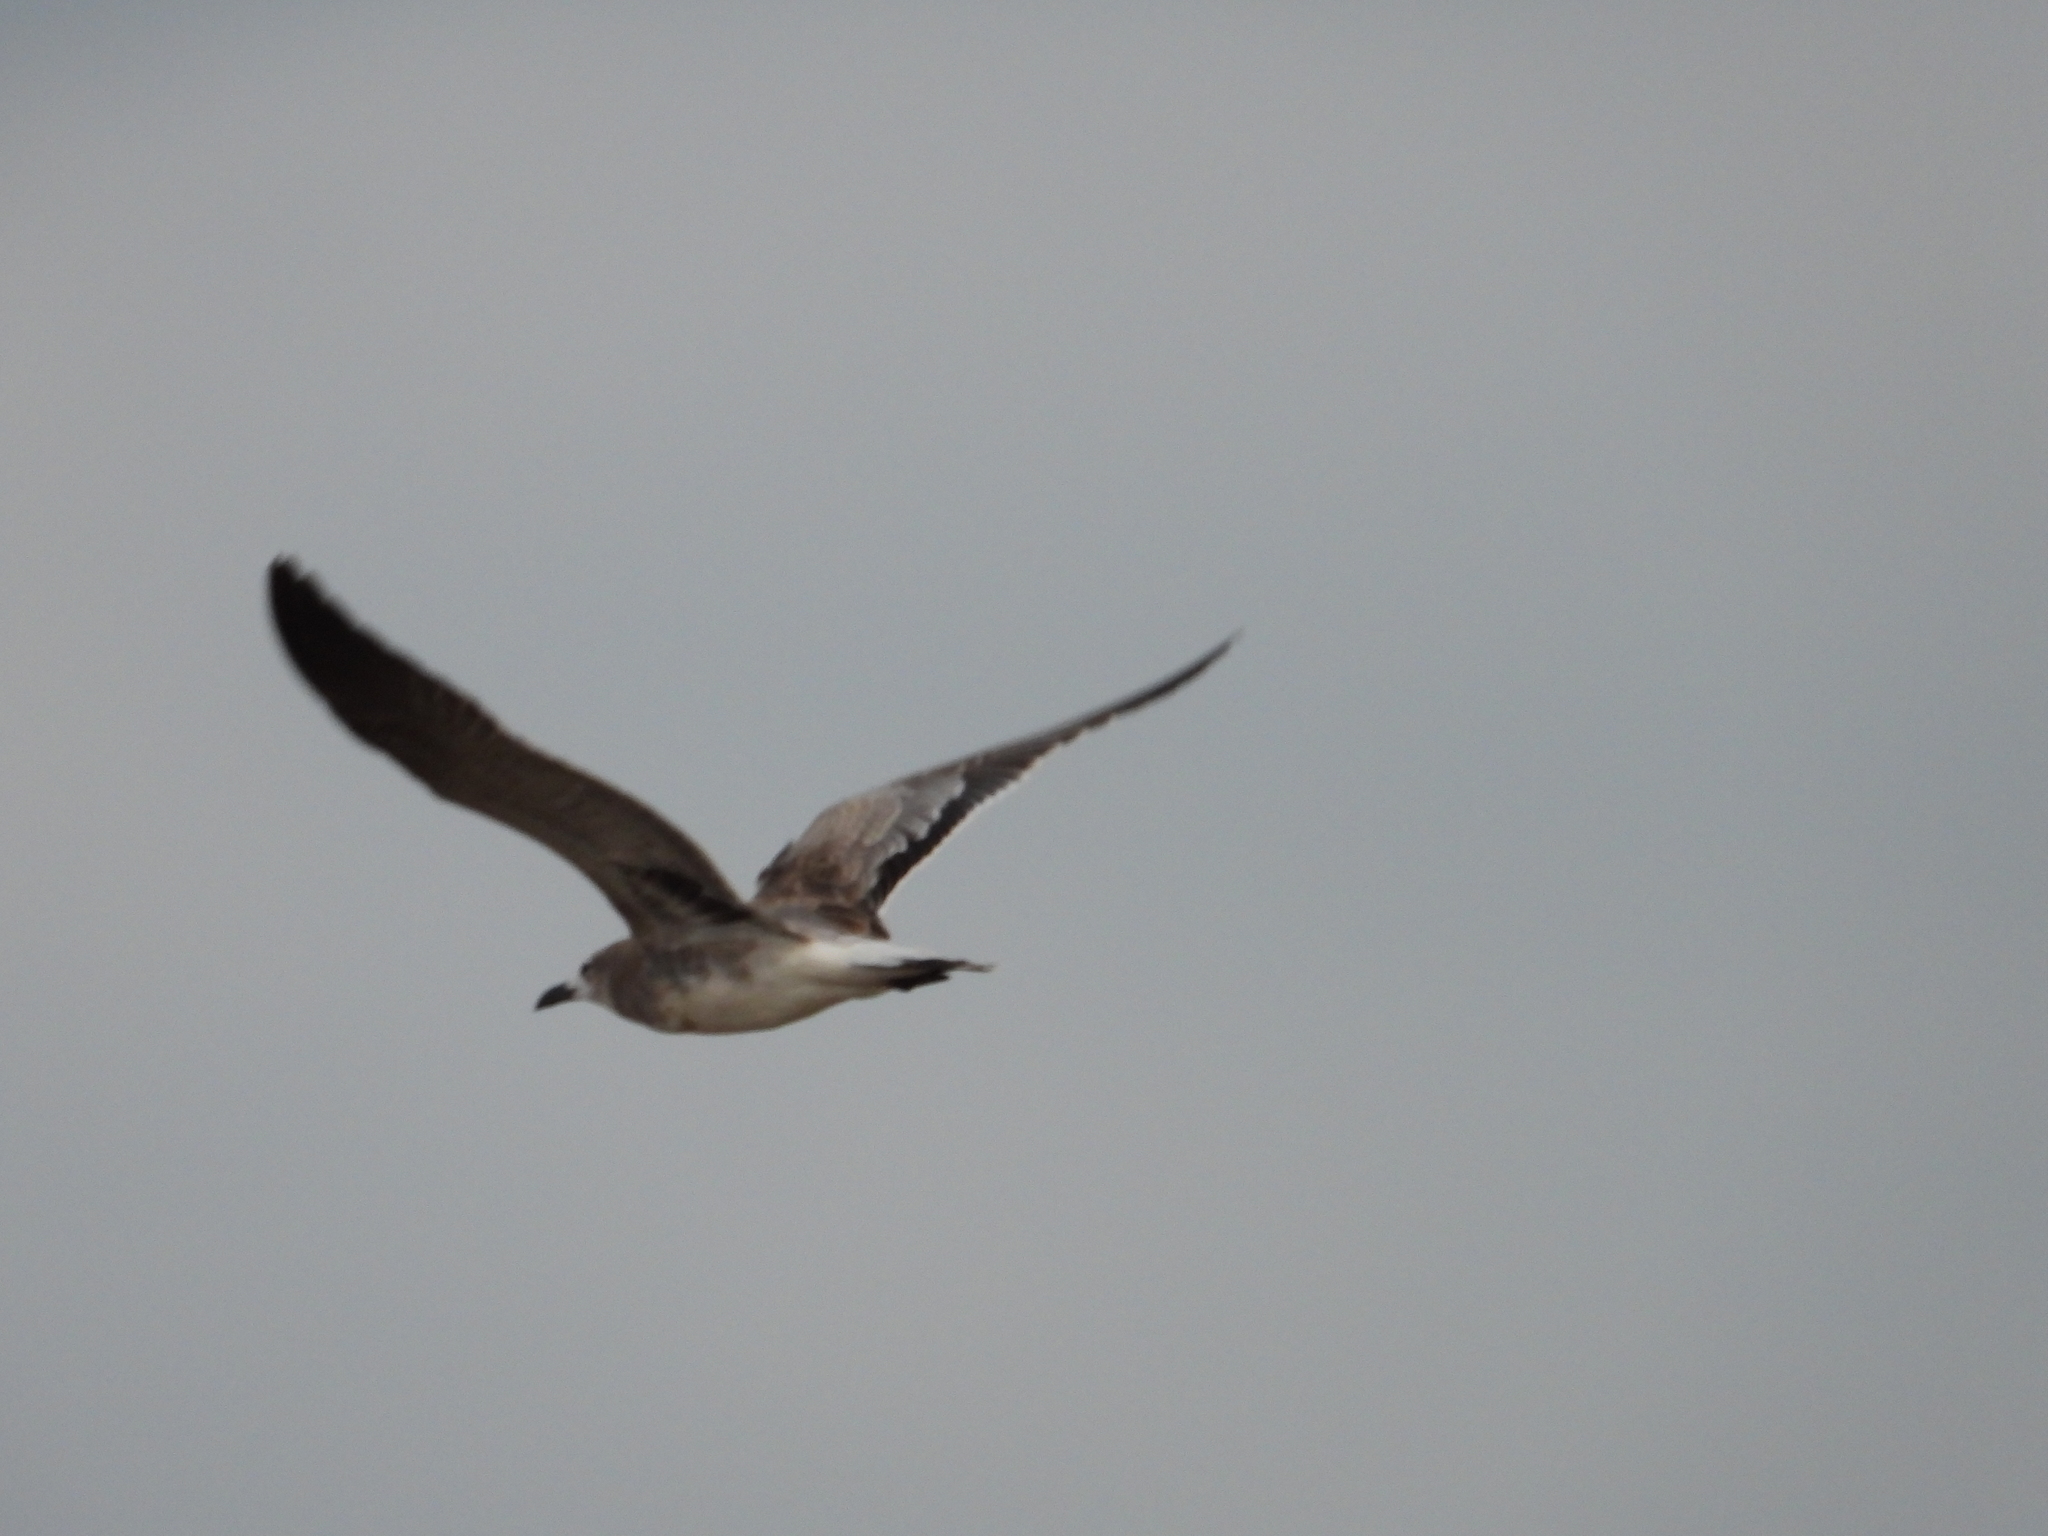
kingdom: Animalia
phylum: Chordata
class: Aves
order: Charadriiformes
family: Laridae
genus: Leucophaeus
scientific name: Leucophaeus atricilla
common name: Laughing gull
